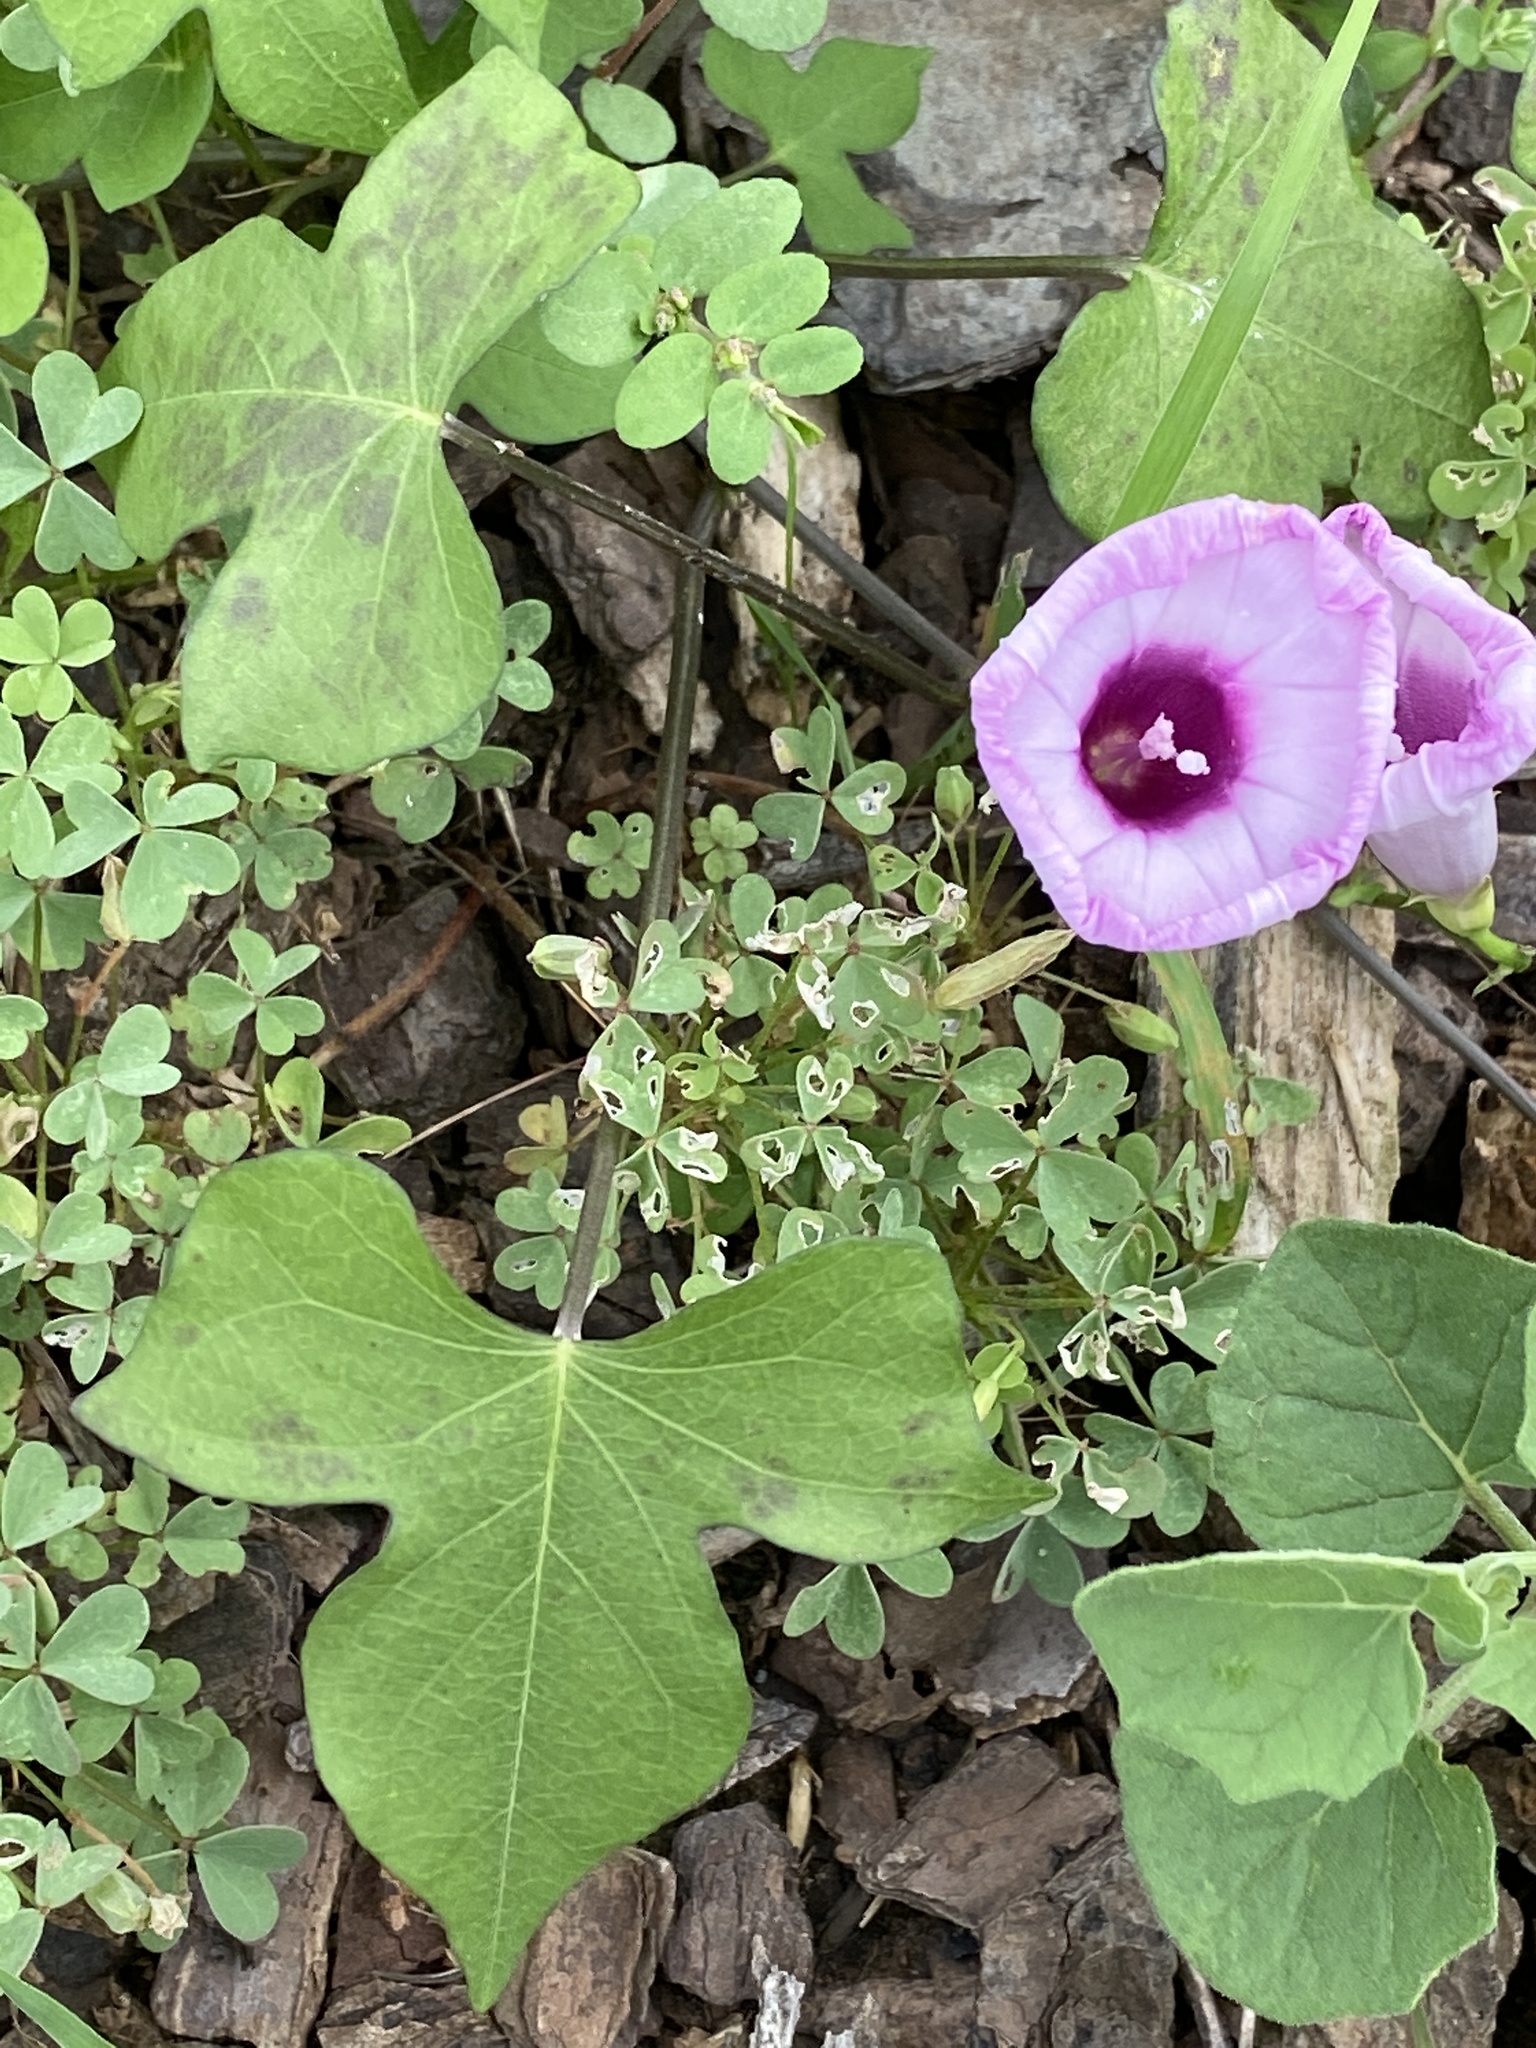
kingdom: Plantae
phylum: Tracheophyta
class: Magnoliopsida
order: Solanales
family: Convolvulaceae
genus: Ipomoea
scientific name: Ipomoea cordatotriloba
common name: Cotton morning glory
